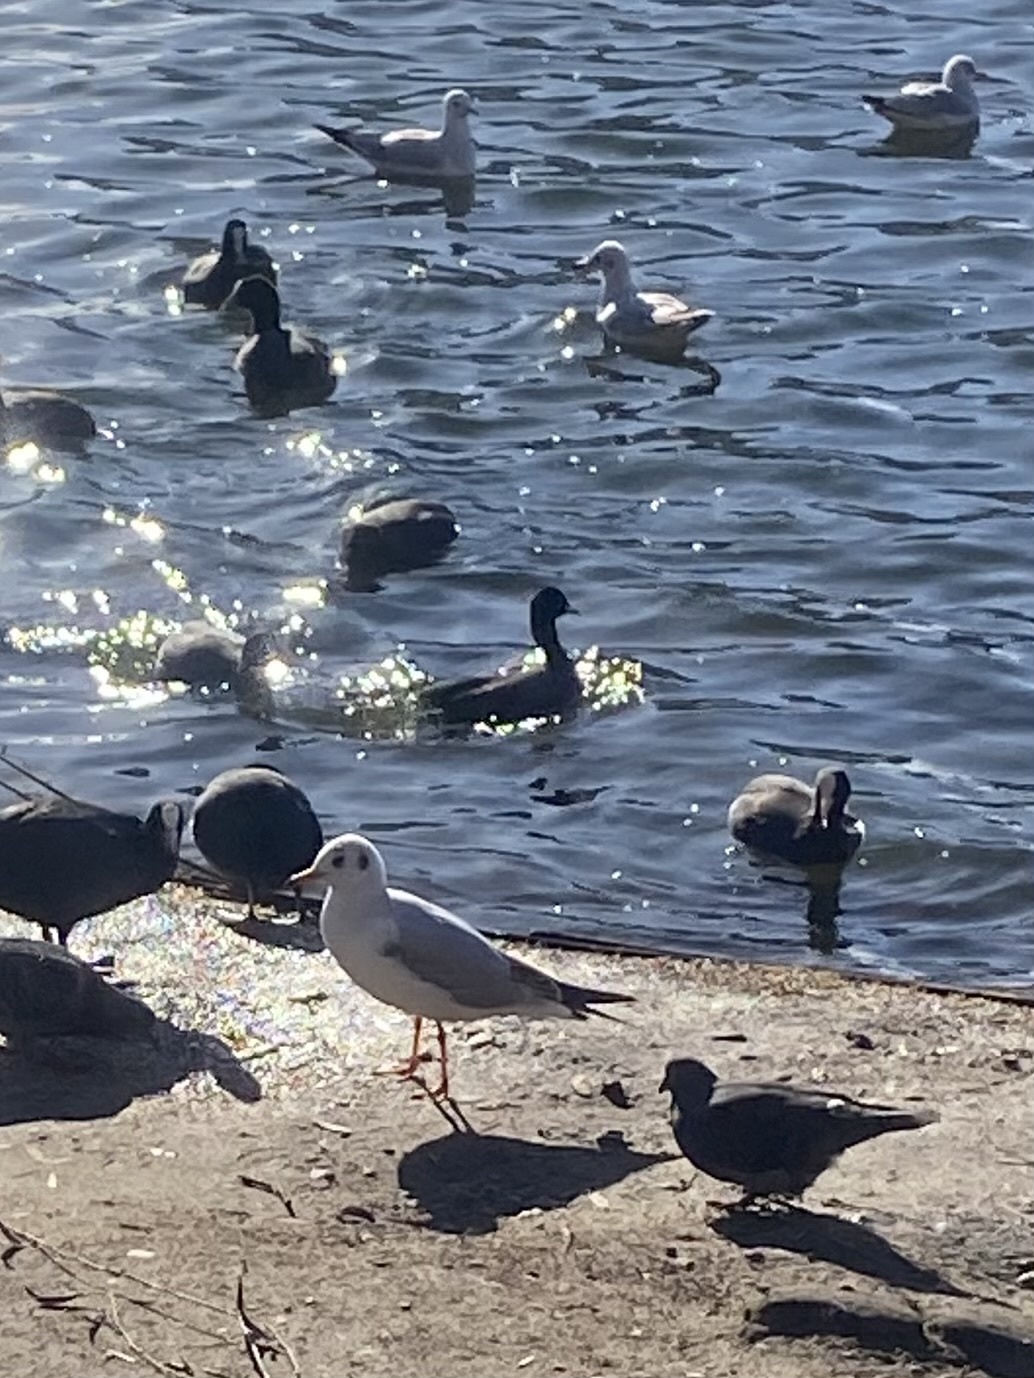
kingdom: Animalia
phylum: Chordata
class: Aves
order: Charadriiformes
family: Laridae
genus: Chroicocephalus
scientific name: Chroicocephalus ridibundus
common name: Black-headed gull
